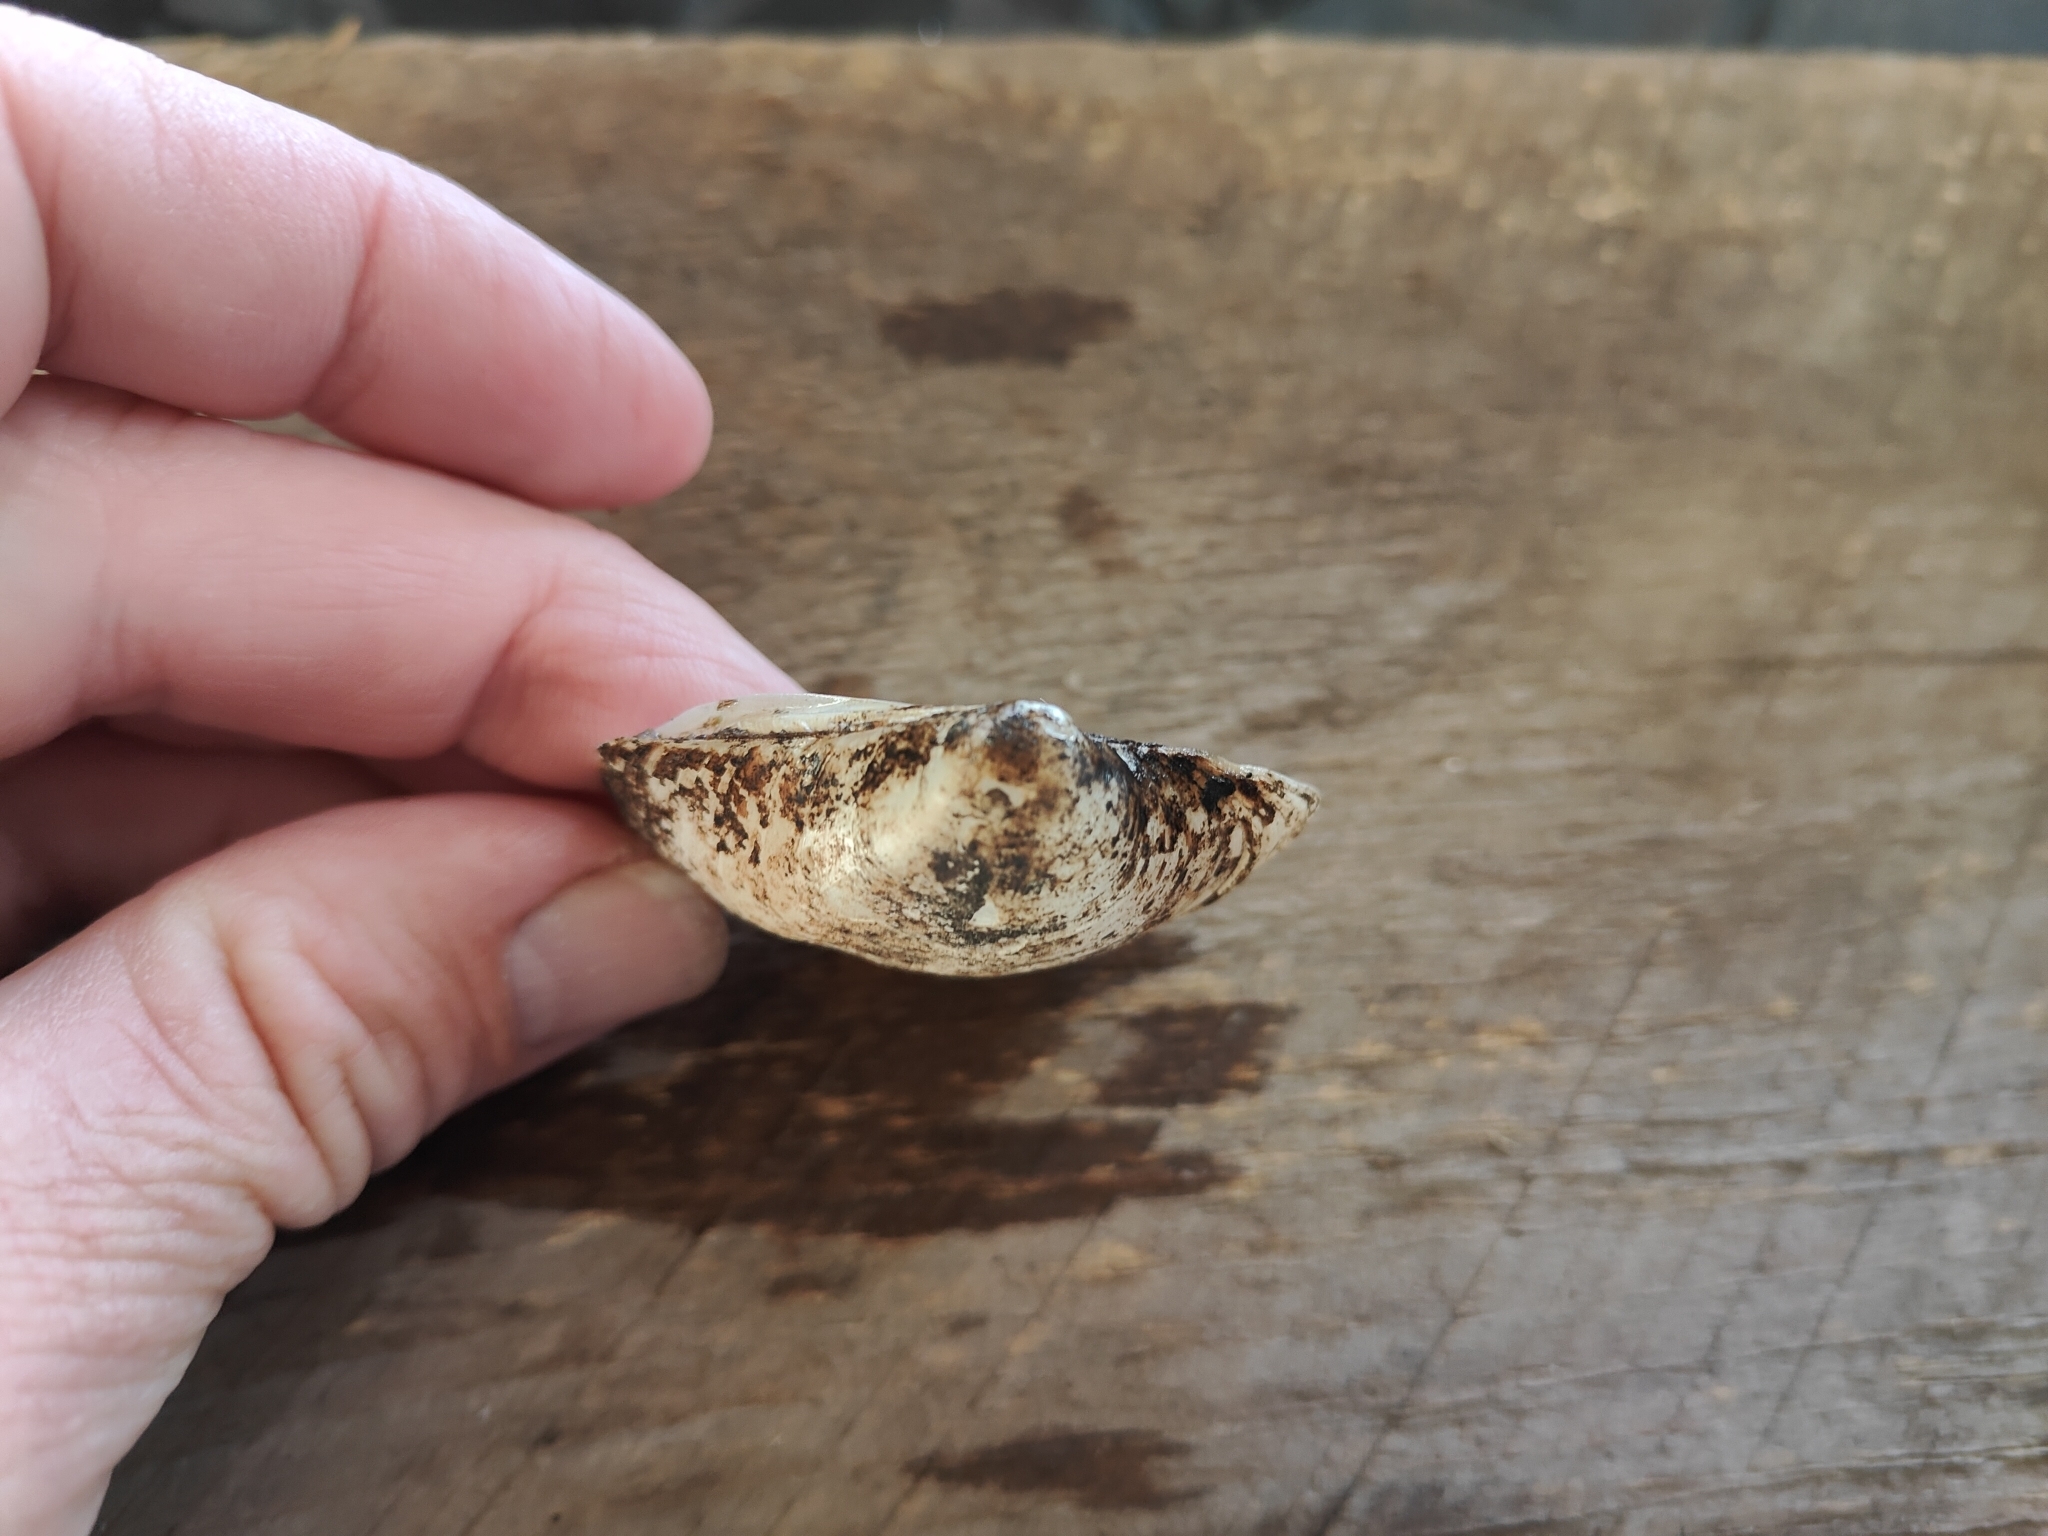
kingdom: Animalia
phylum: Mollusca
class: Bivalvia
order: Unionida
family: Unionidae
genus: Cyclonaias
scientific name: Cyclonaias pustulosa
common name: Pimpleback
